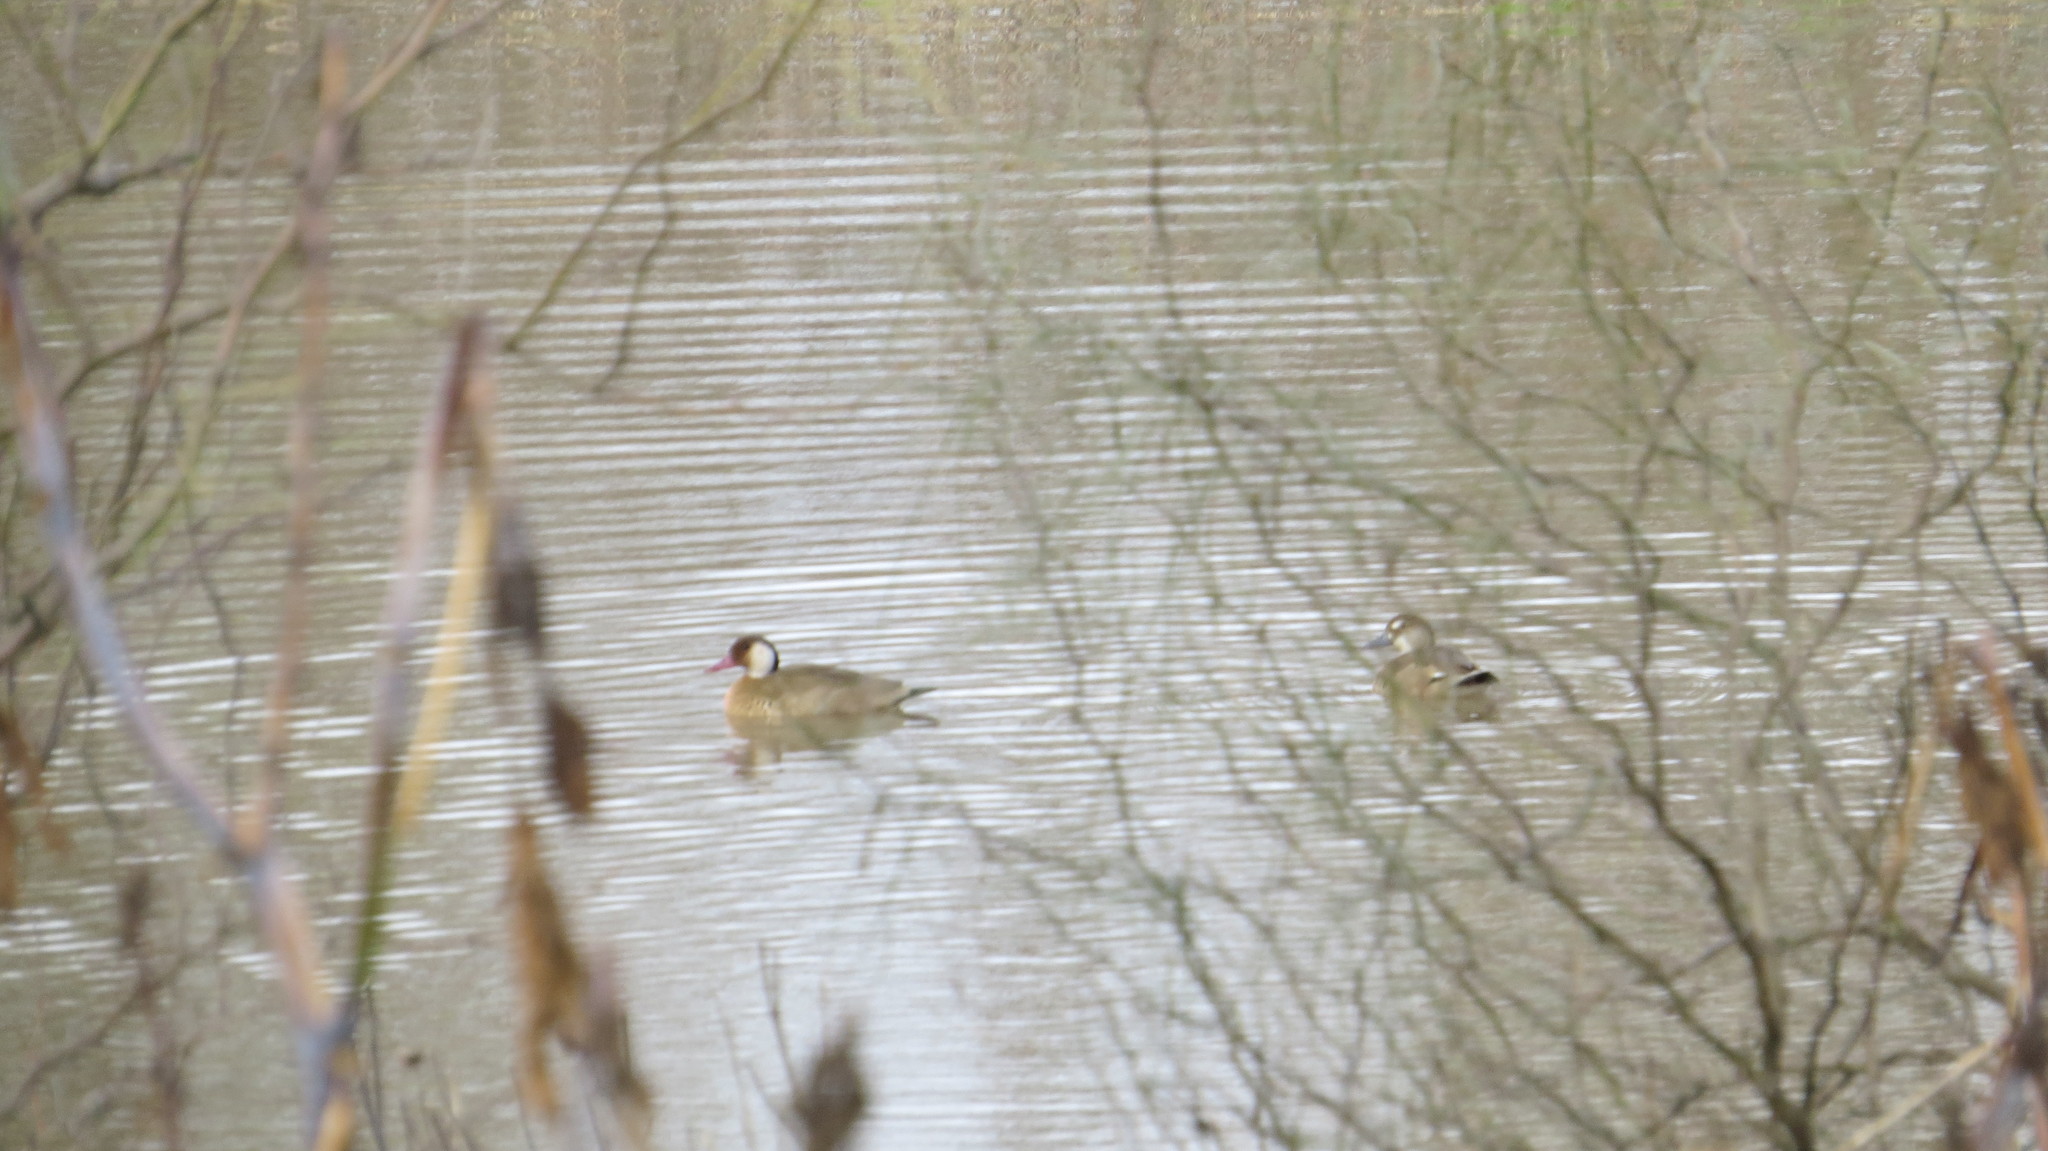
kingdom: Animalia
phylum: Chordata
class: Aves
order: Anseriformes
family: Anatidae
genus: Amazonetta
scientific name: Amazonetta brasiliensis
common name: Brazilian teal
